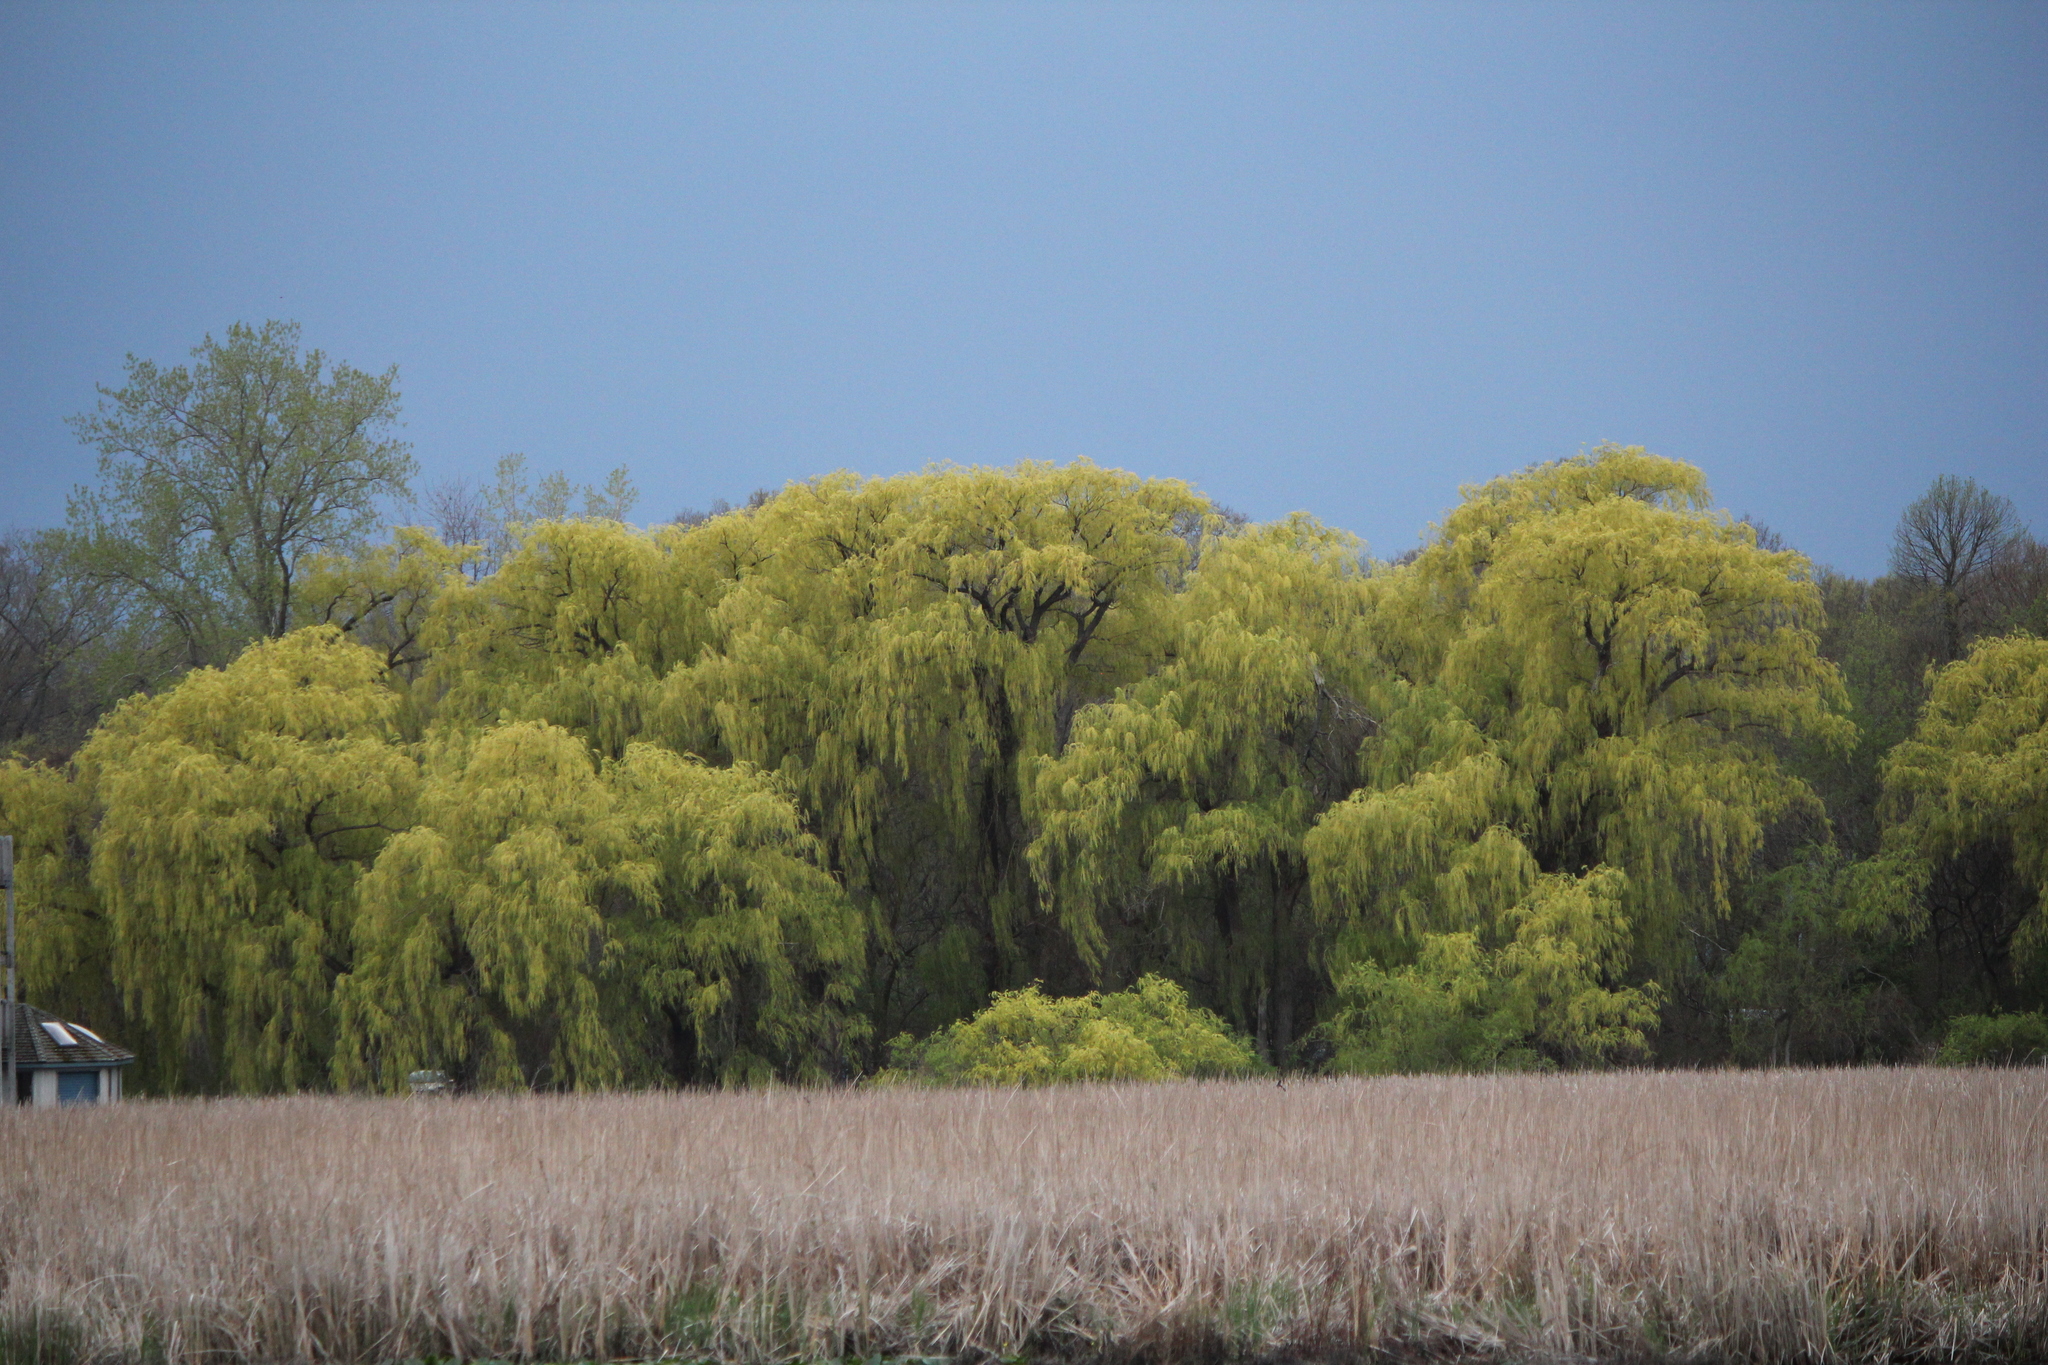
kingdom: Plantae
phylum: Tracheophyta
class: Magnoliopsida
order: Malpighiales
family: Salicaceae
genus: Salix
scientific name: Salix pendulina
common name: Wisconsin weeping willow
